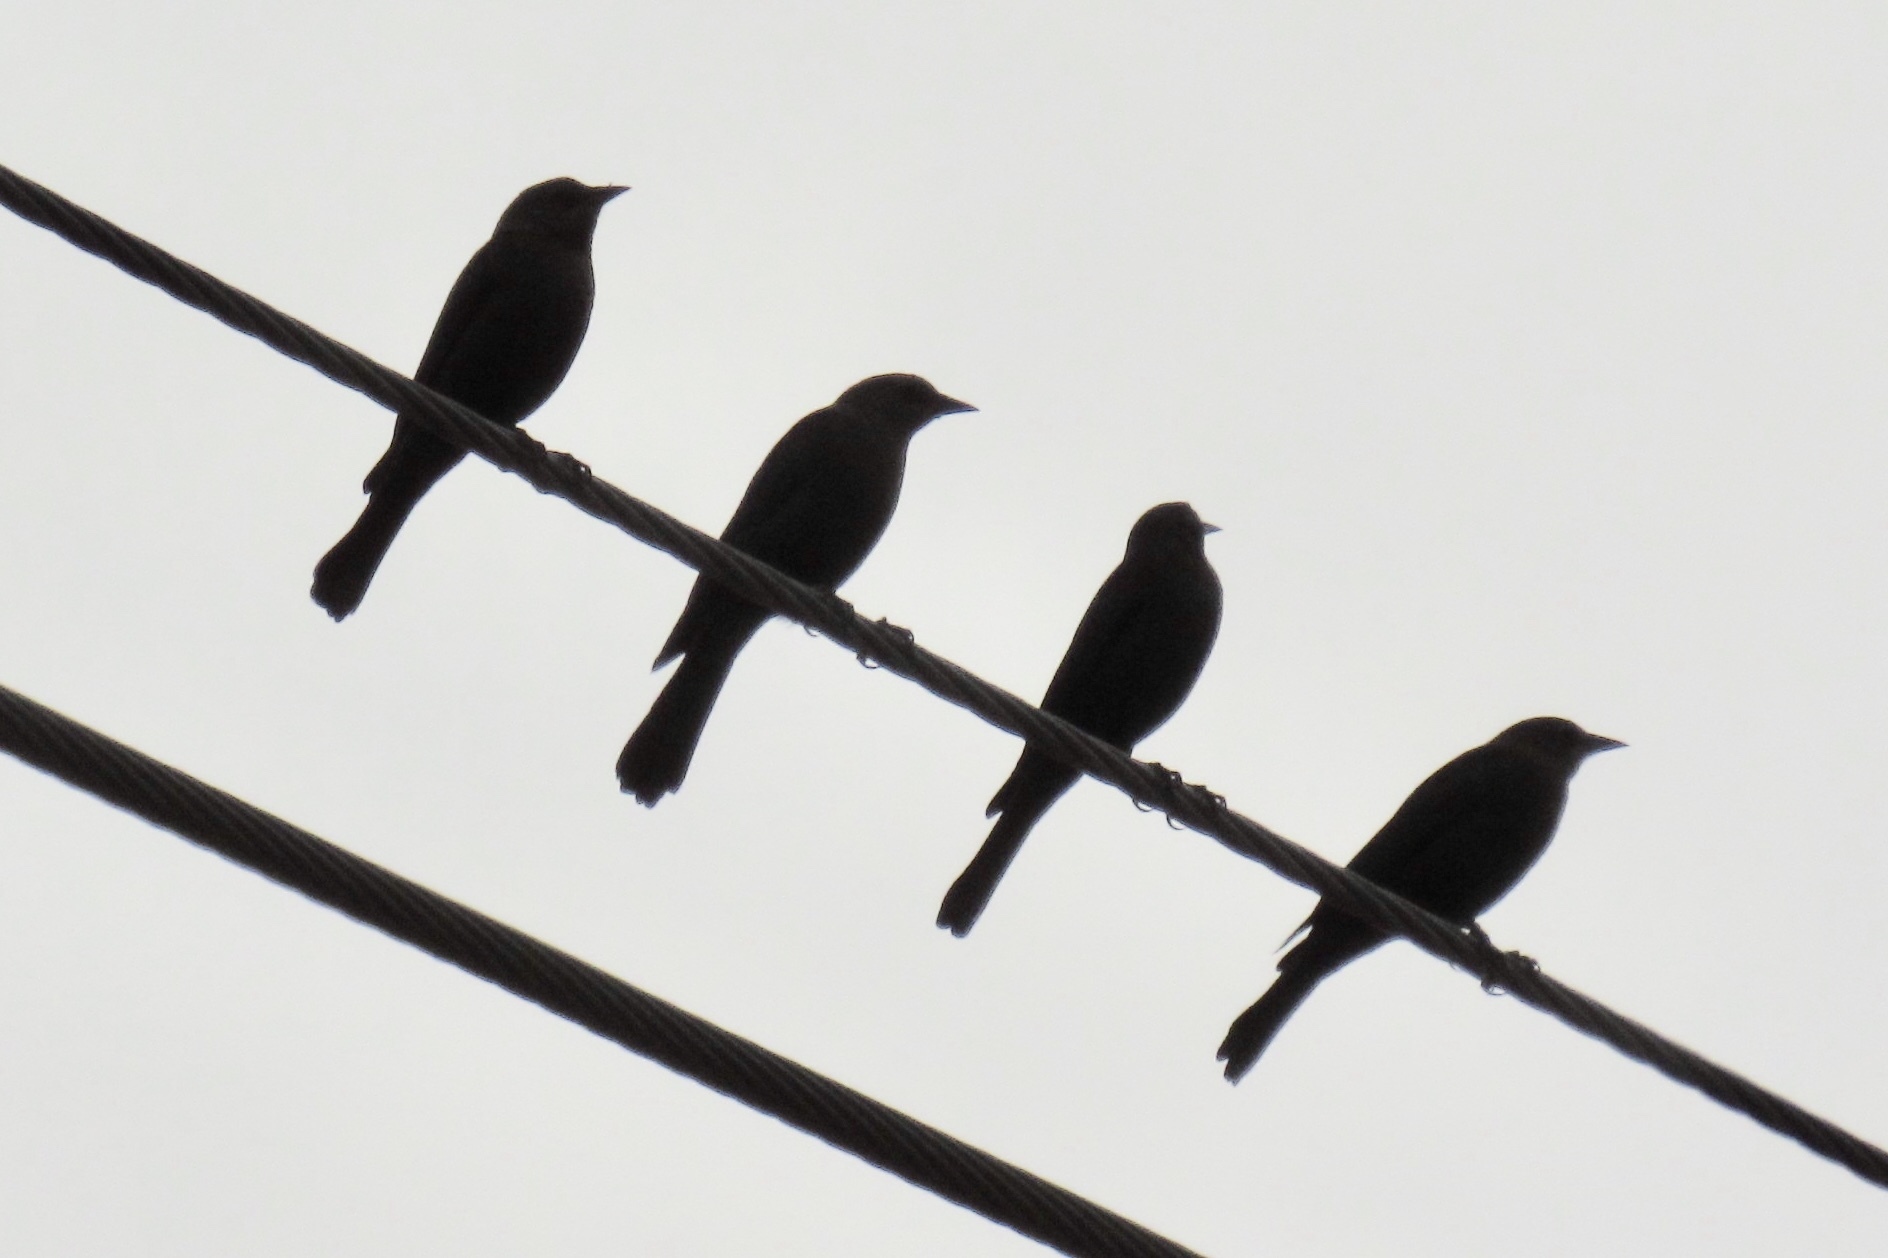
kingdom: Animalia
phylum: Chordata
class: Aves
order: Passeriformes
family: Icteridae
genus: Euphagus
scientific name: Euphagus cyanocephalus
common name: Brewer's blackbird
